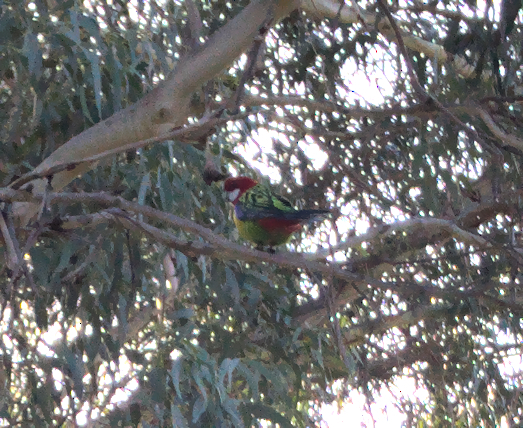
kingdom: Animalia
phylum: Chordata
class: Aves
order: Psittaciformes
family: Psittacidae
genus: Platycercus
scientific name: Platycercus eximius
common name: Eastern rosella
